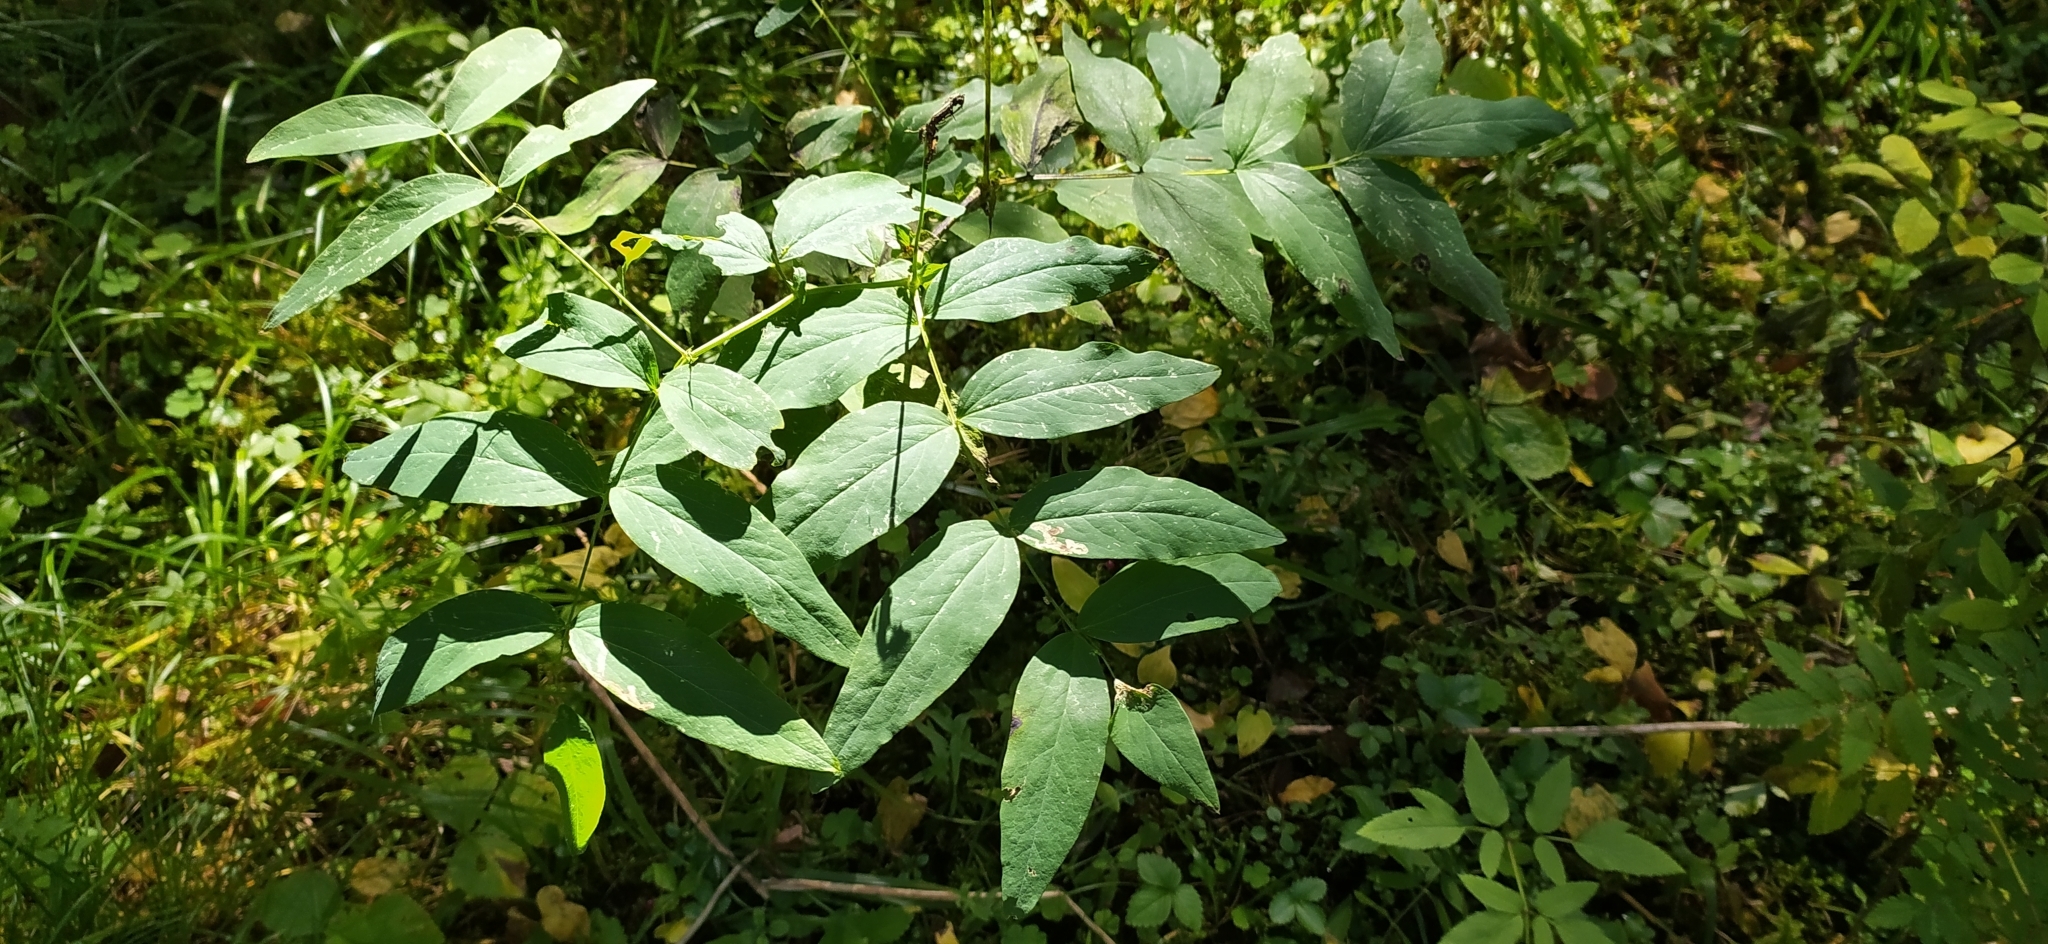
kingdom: Plantae
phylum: Tracheophyta
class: Magnoliopsida
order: Fabales
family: Fabaceae
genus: Lathyrus
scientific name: Lathyrus gmelinii
